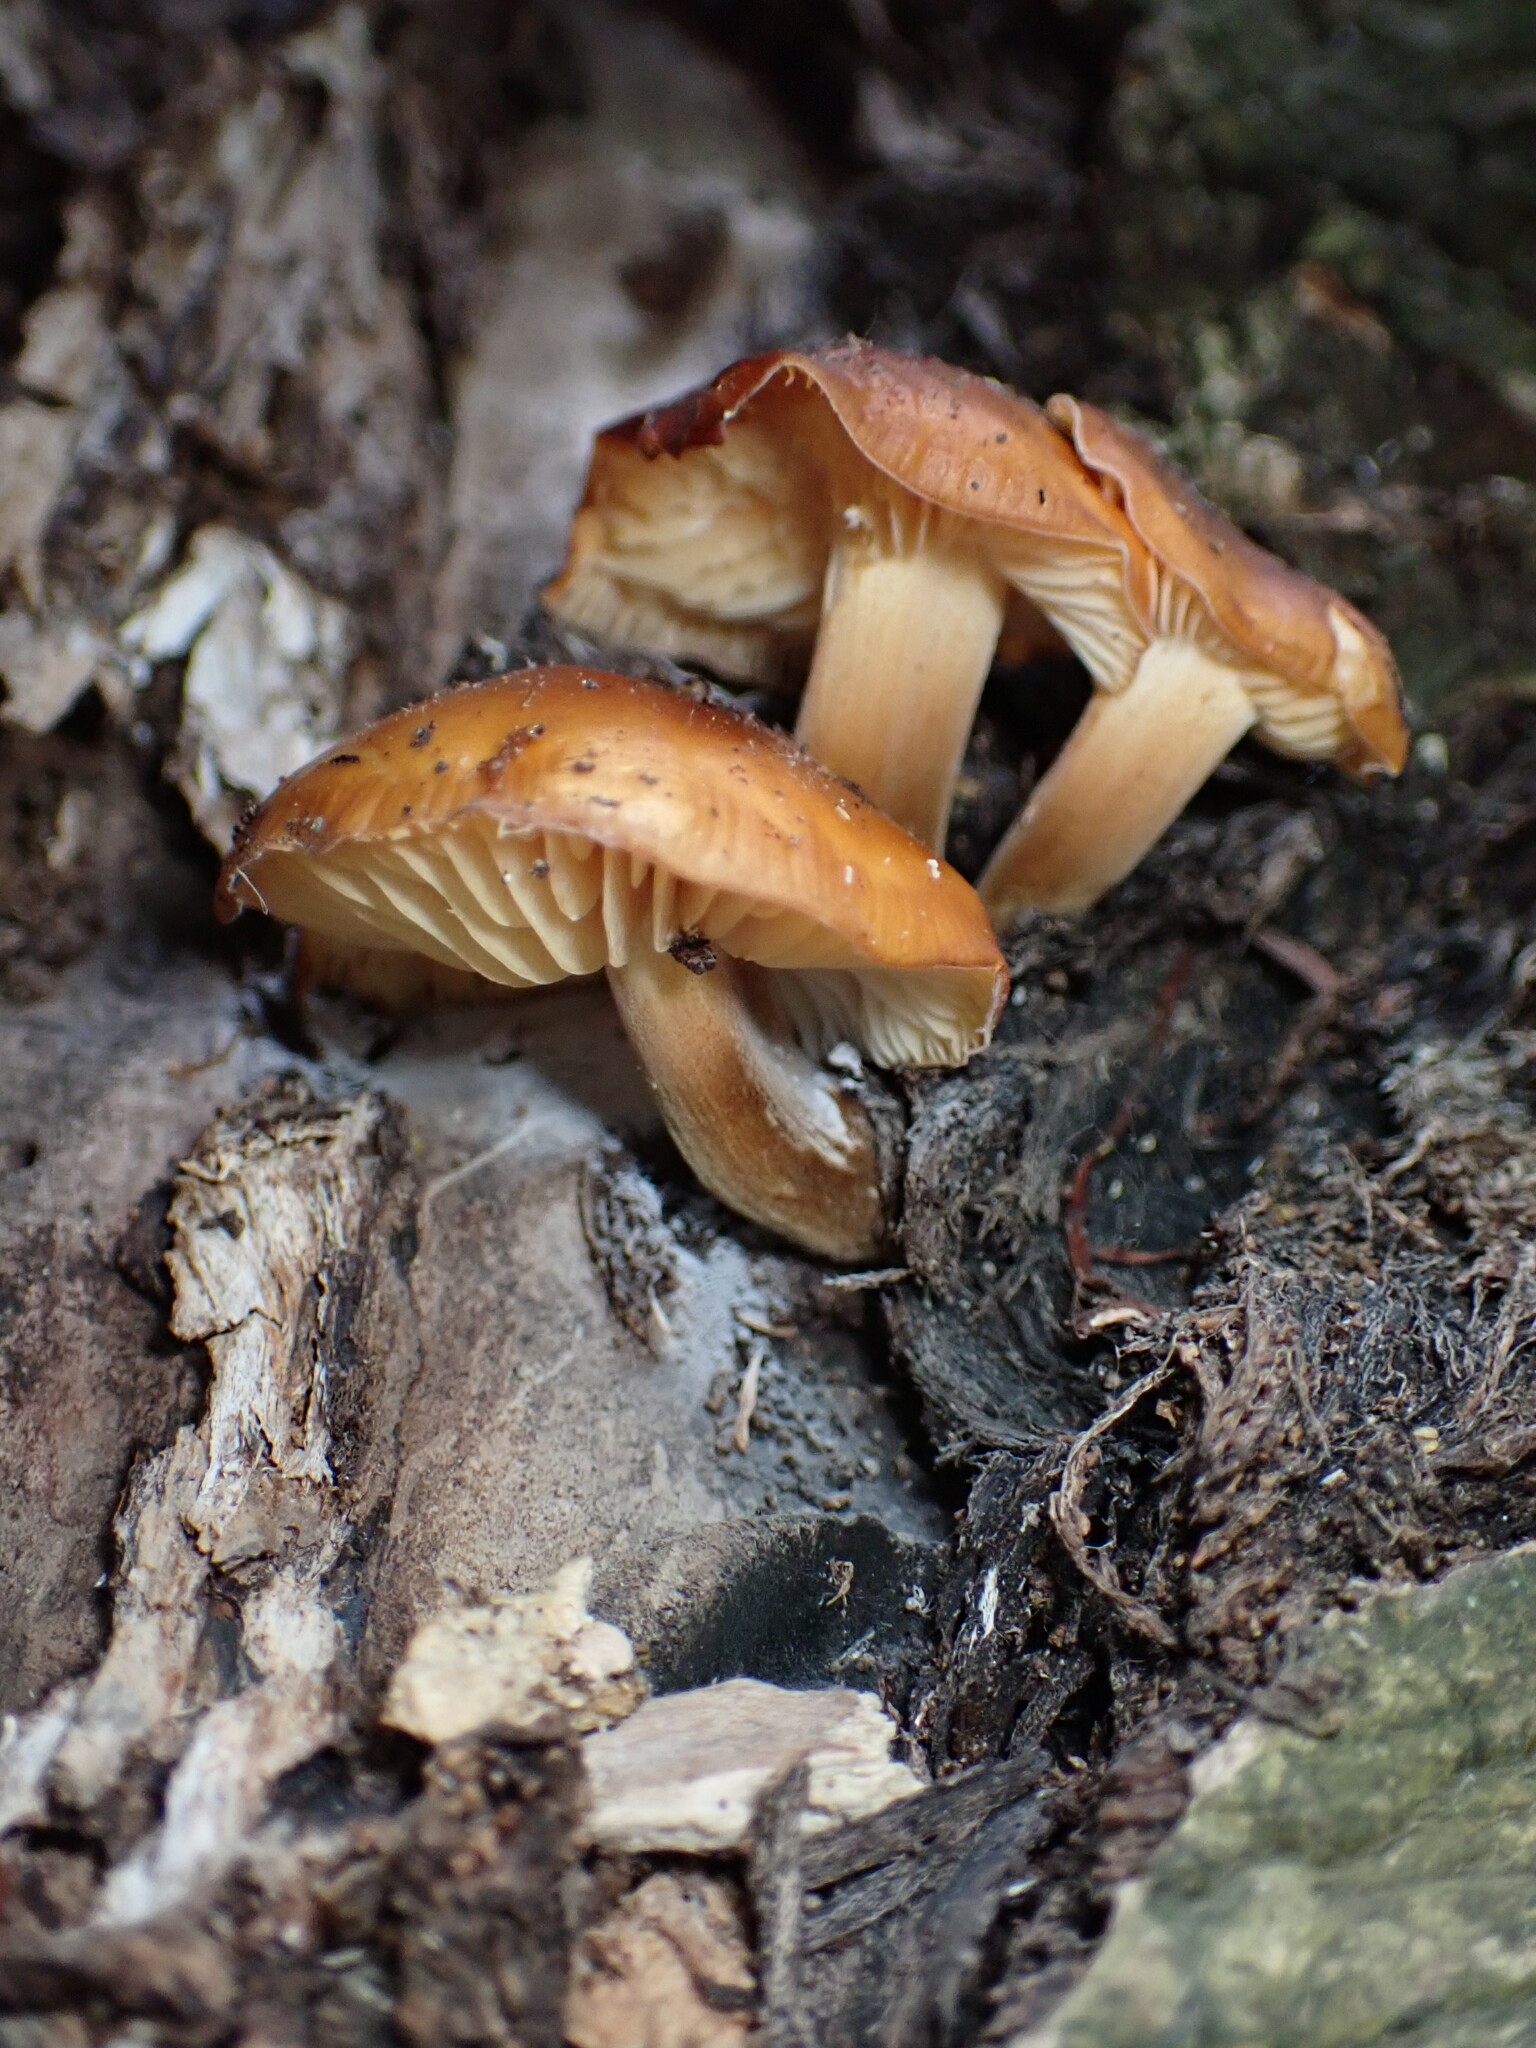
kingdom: Fungi
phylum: Basidiomycota
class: Agaricomycetes
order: Agaricales
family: Physalacriaceae
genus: Flammulina
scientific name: Flammulina velutipes
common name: Velvet shank
